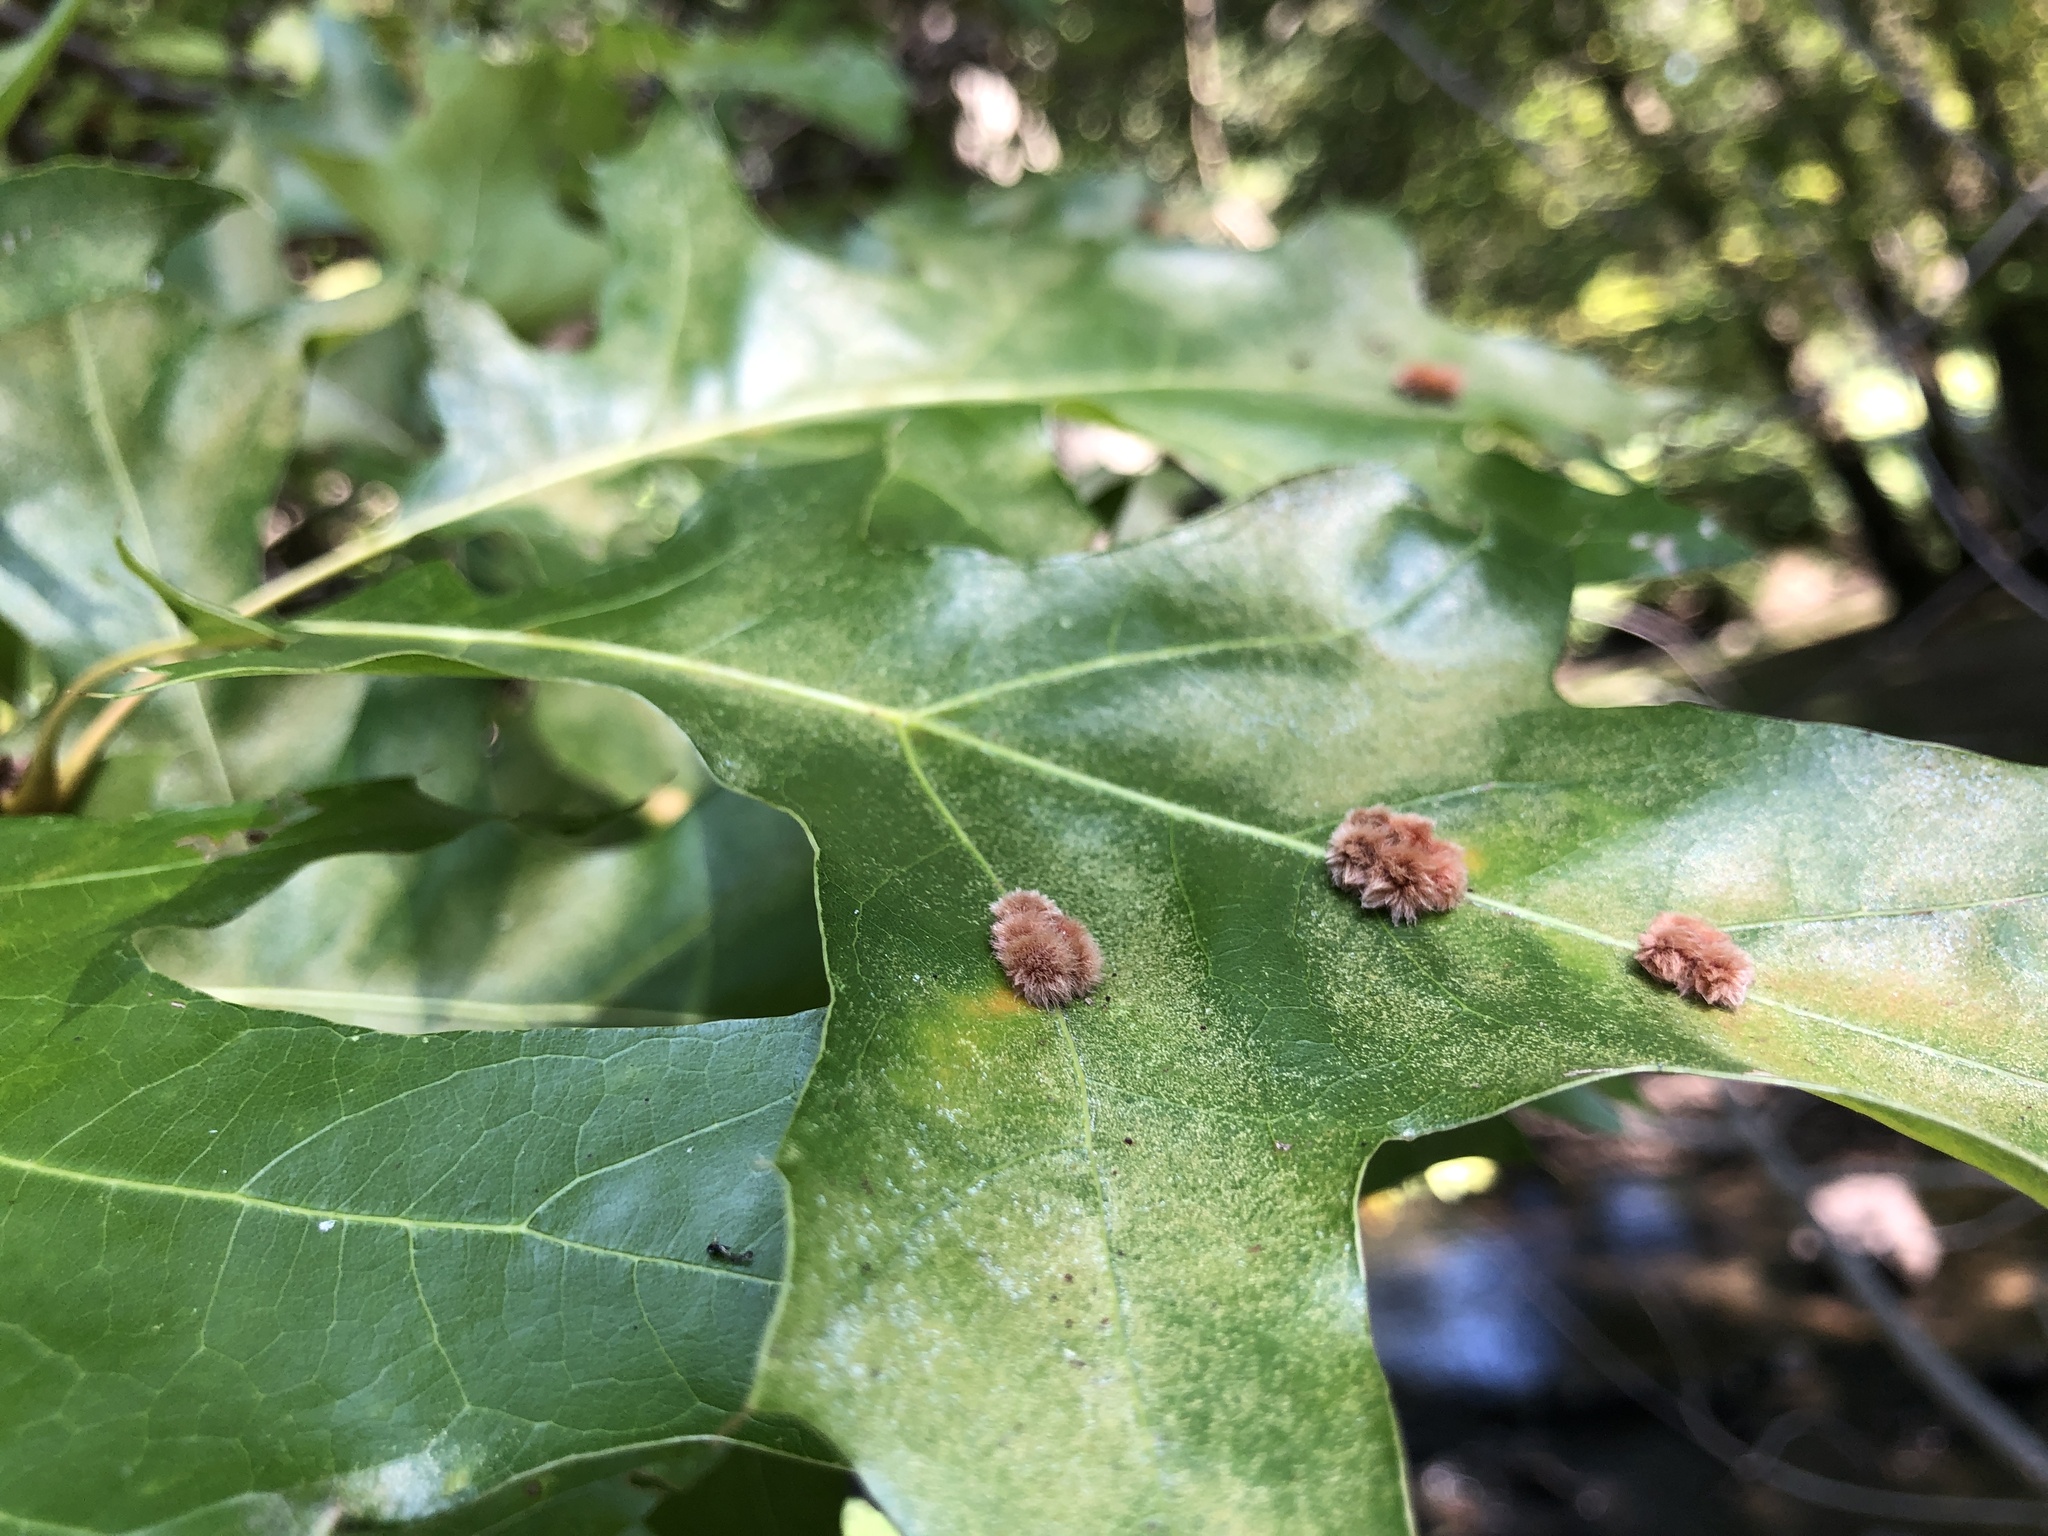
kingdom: Animalia
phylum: Arthropoda
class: Insecta
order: Hymenoptera
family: Cynipidae
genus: Callirhytis
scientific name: Callirhytis
